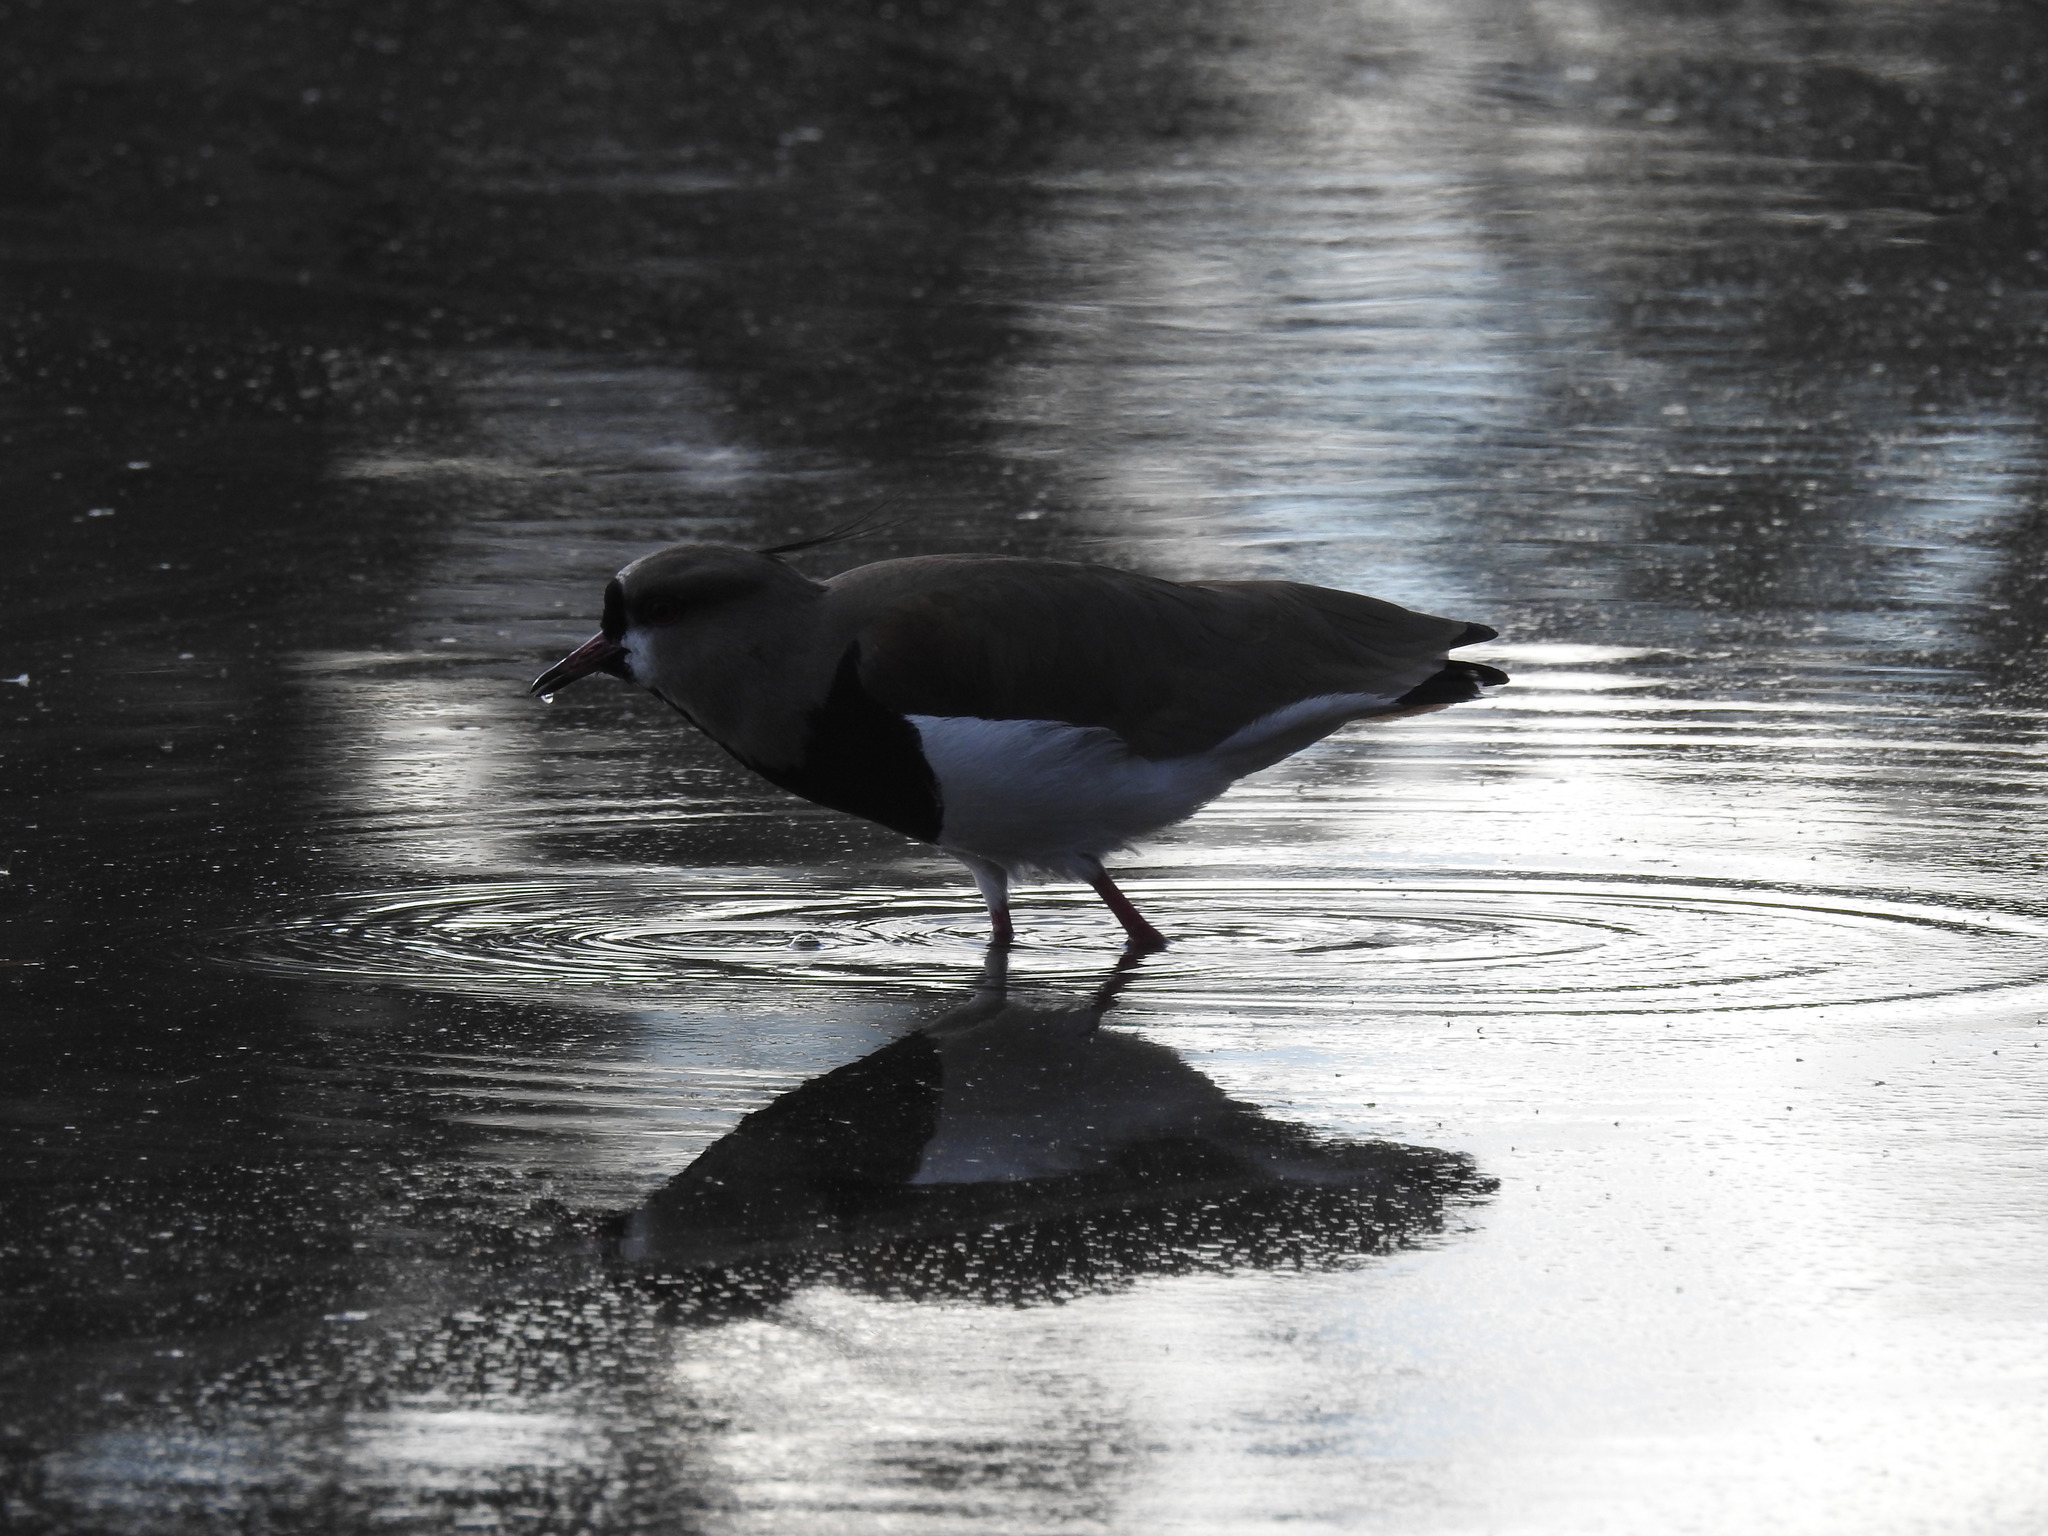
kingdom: Animalia
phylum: Chordata
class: Aves
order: Charadriiformes
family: Charadriidae
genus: Vanellus
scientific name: Vanellus chilensis
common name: Southern lapwing
